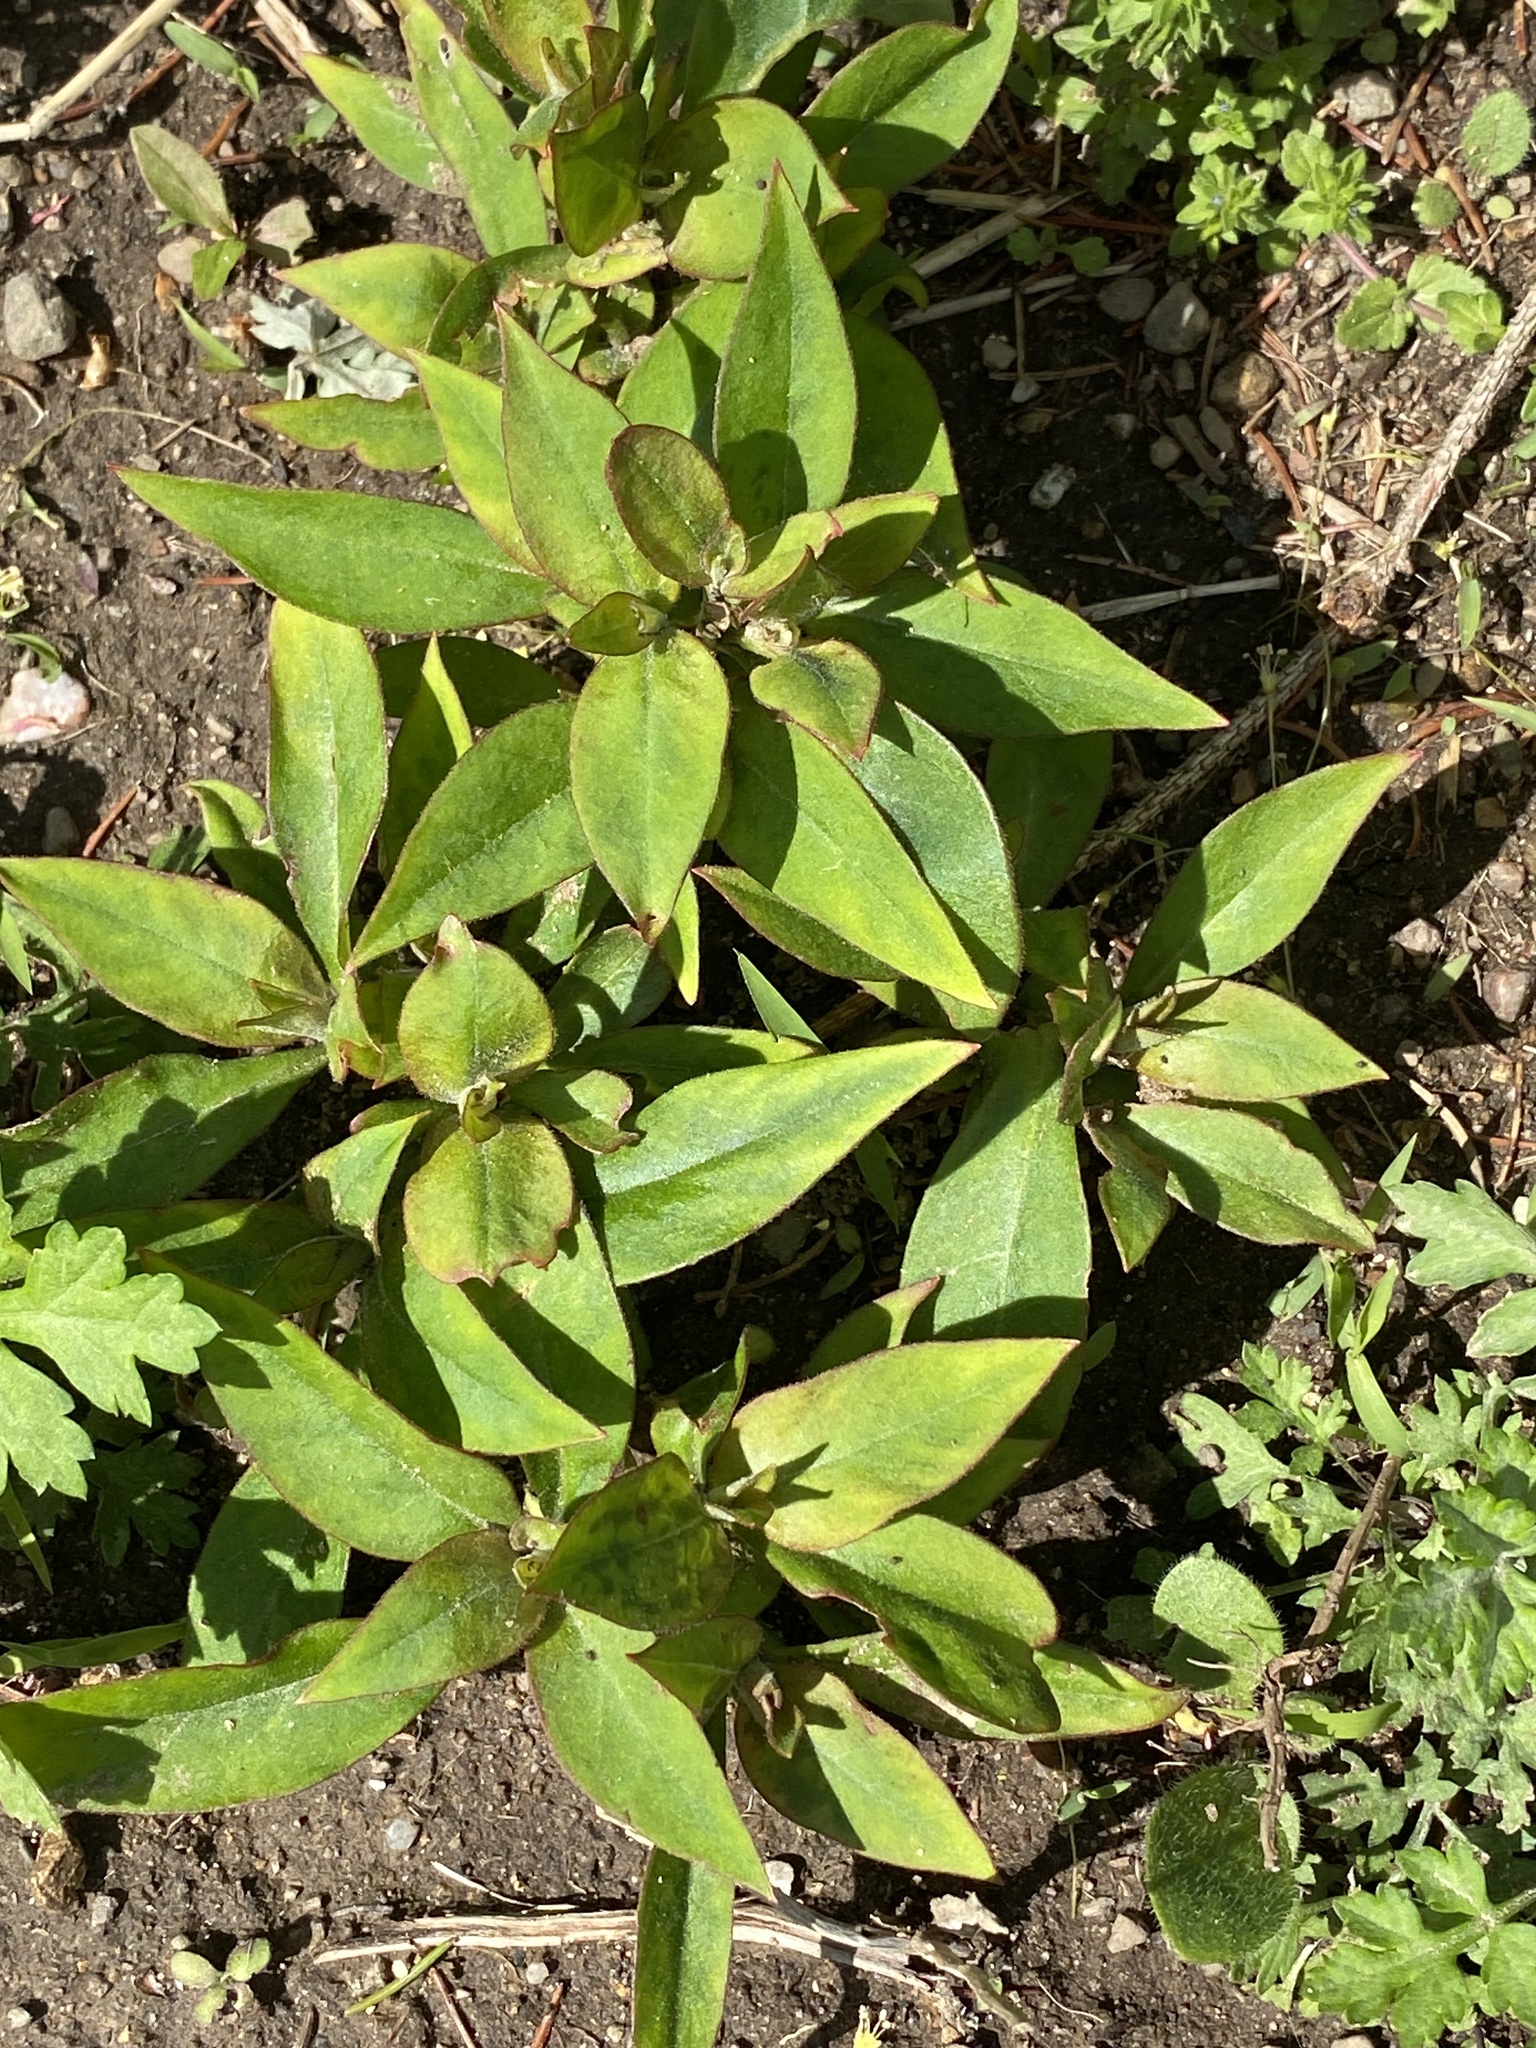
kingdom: Plantae
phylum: Tracheophyta
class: Magnoliopsida
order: Ericales
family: Primulaceae
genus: Lysimachia
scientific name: Lysimachia clethroides
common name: Gooseneck loosestrife
